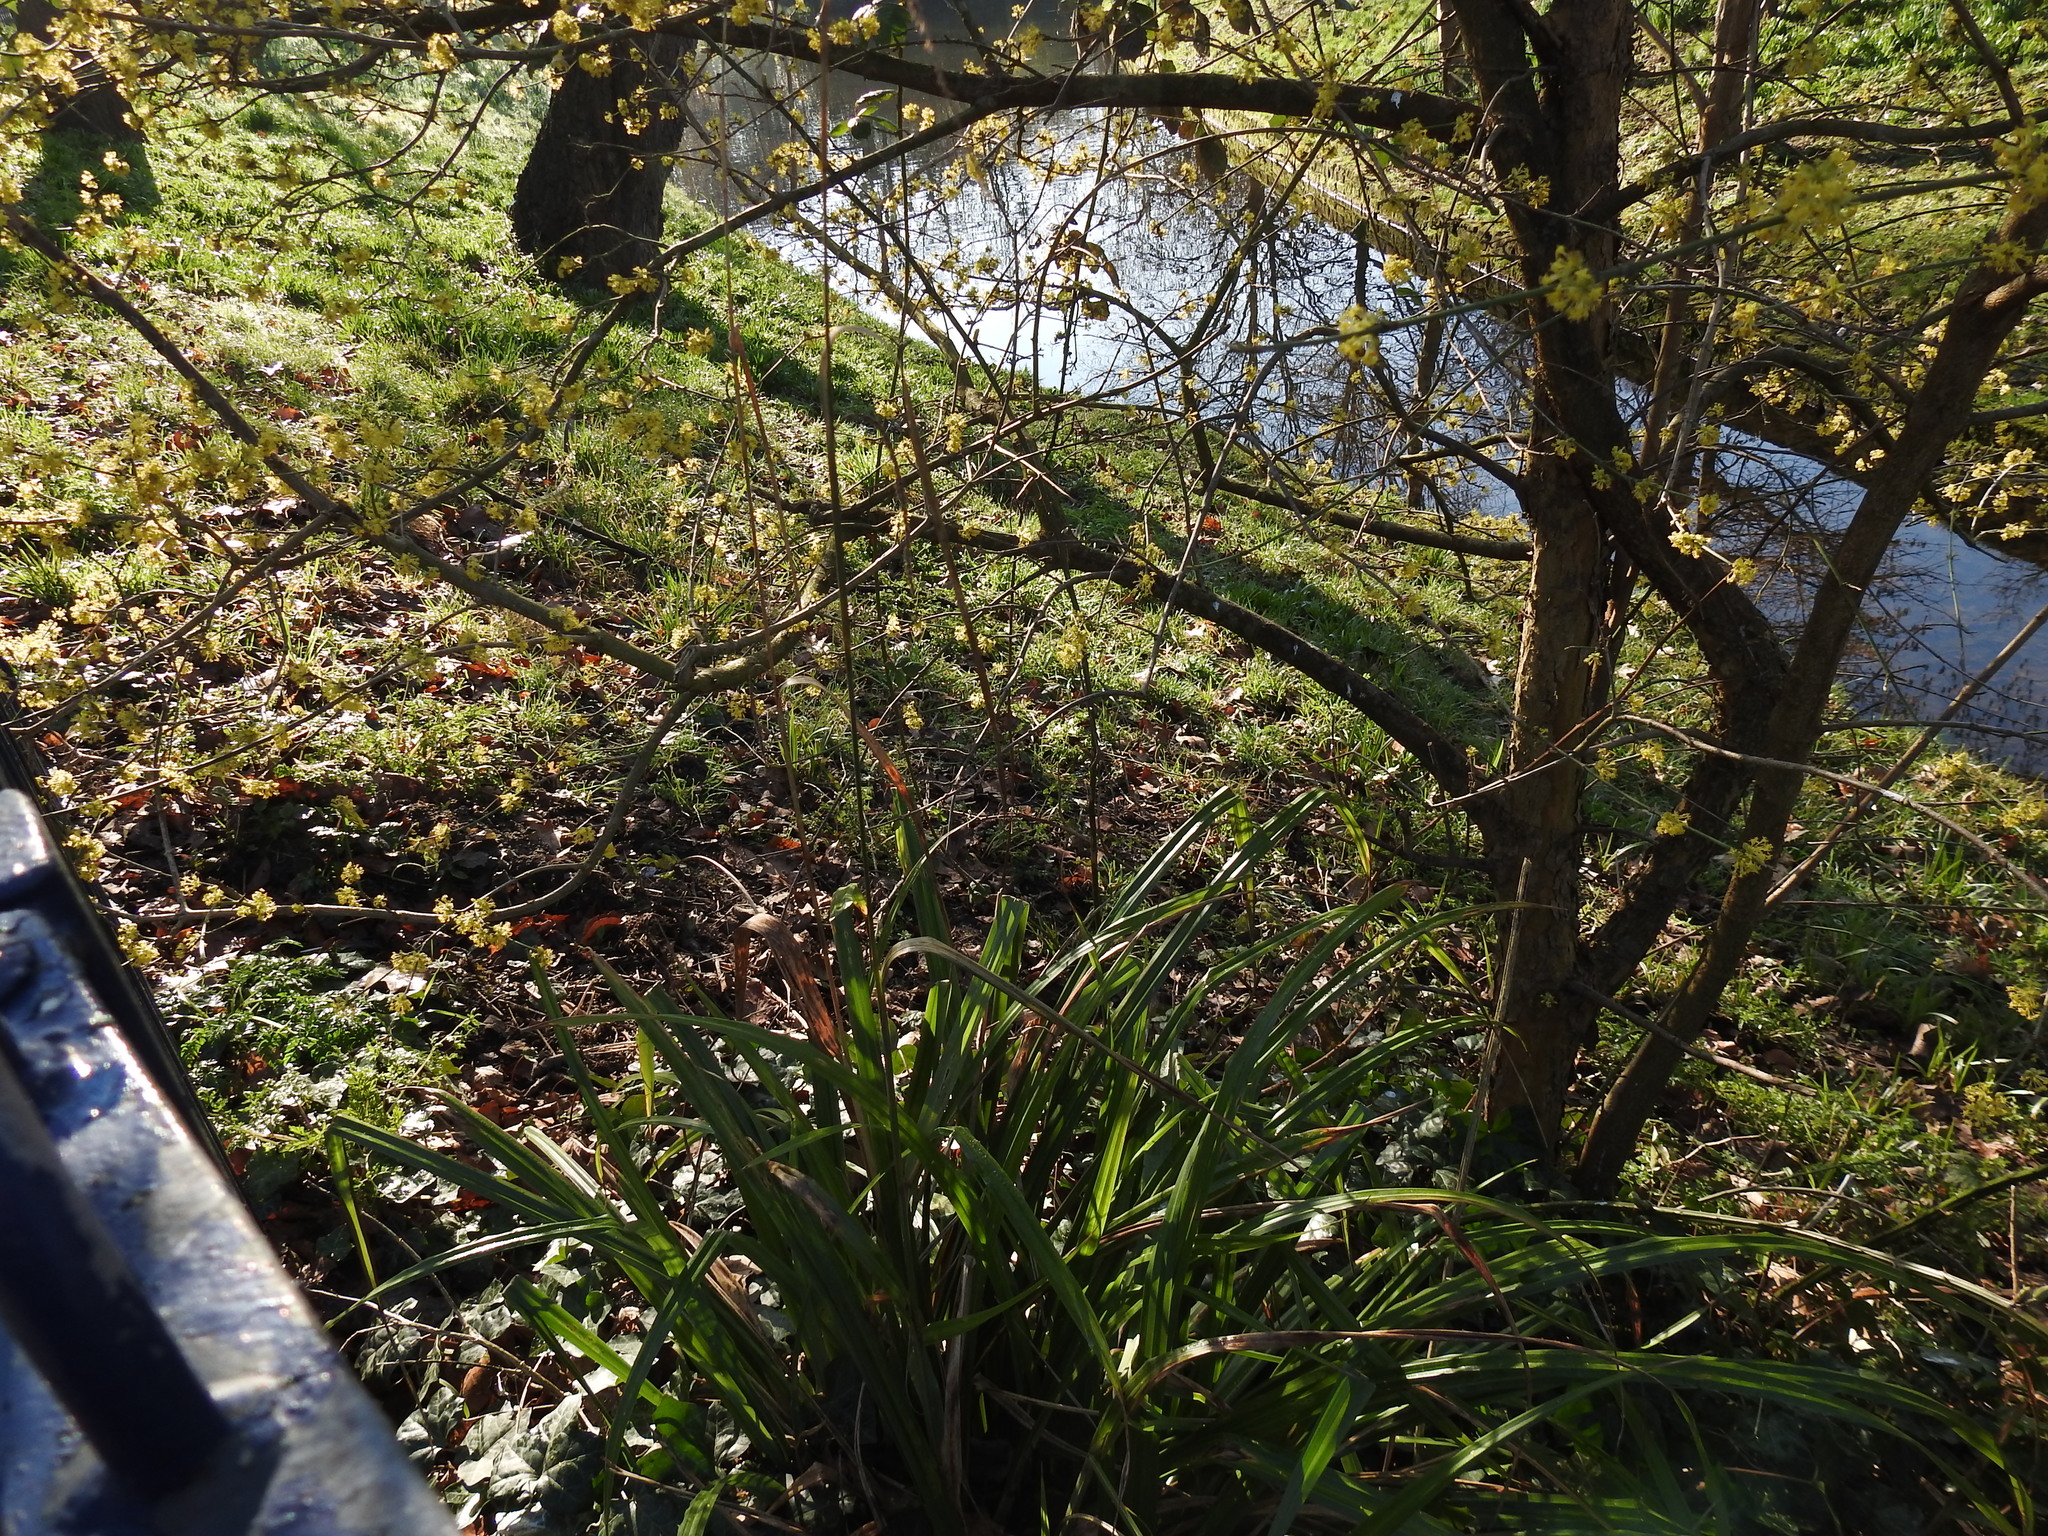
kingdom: Plantae
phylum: Tracheophyta
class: Liliopsida
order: Poales
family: Cyperaceae
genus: Carex
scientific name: Carex pendula
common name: Pendulous sedge
